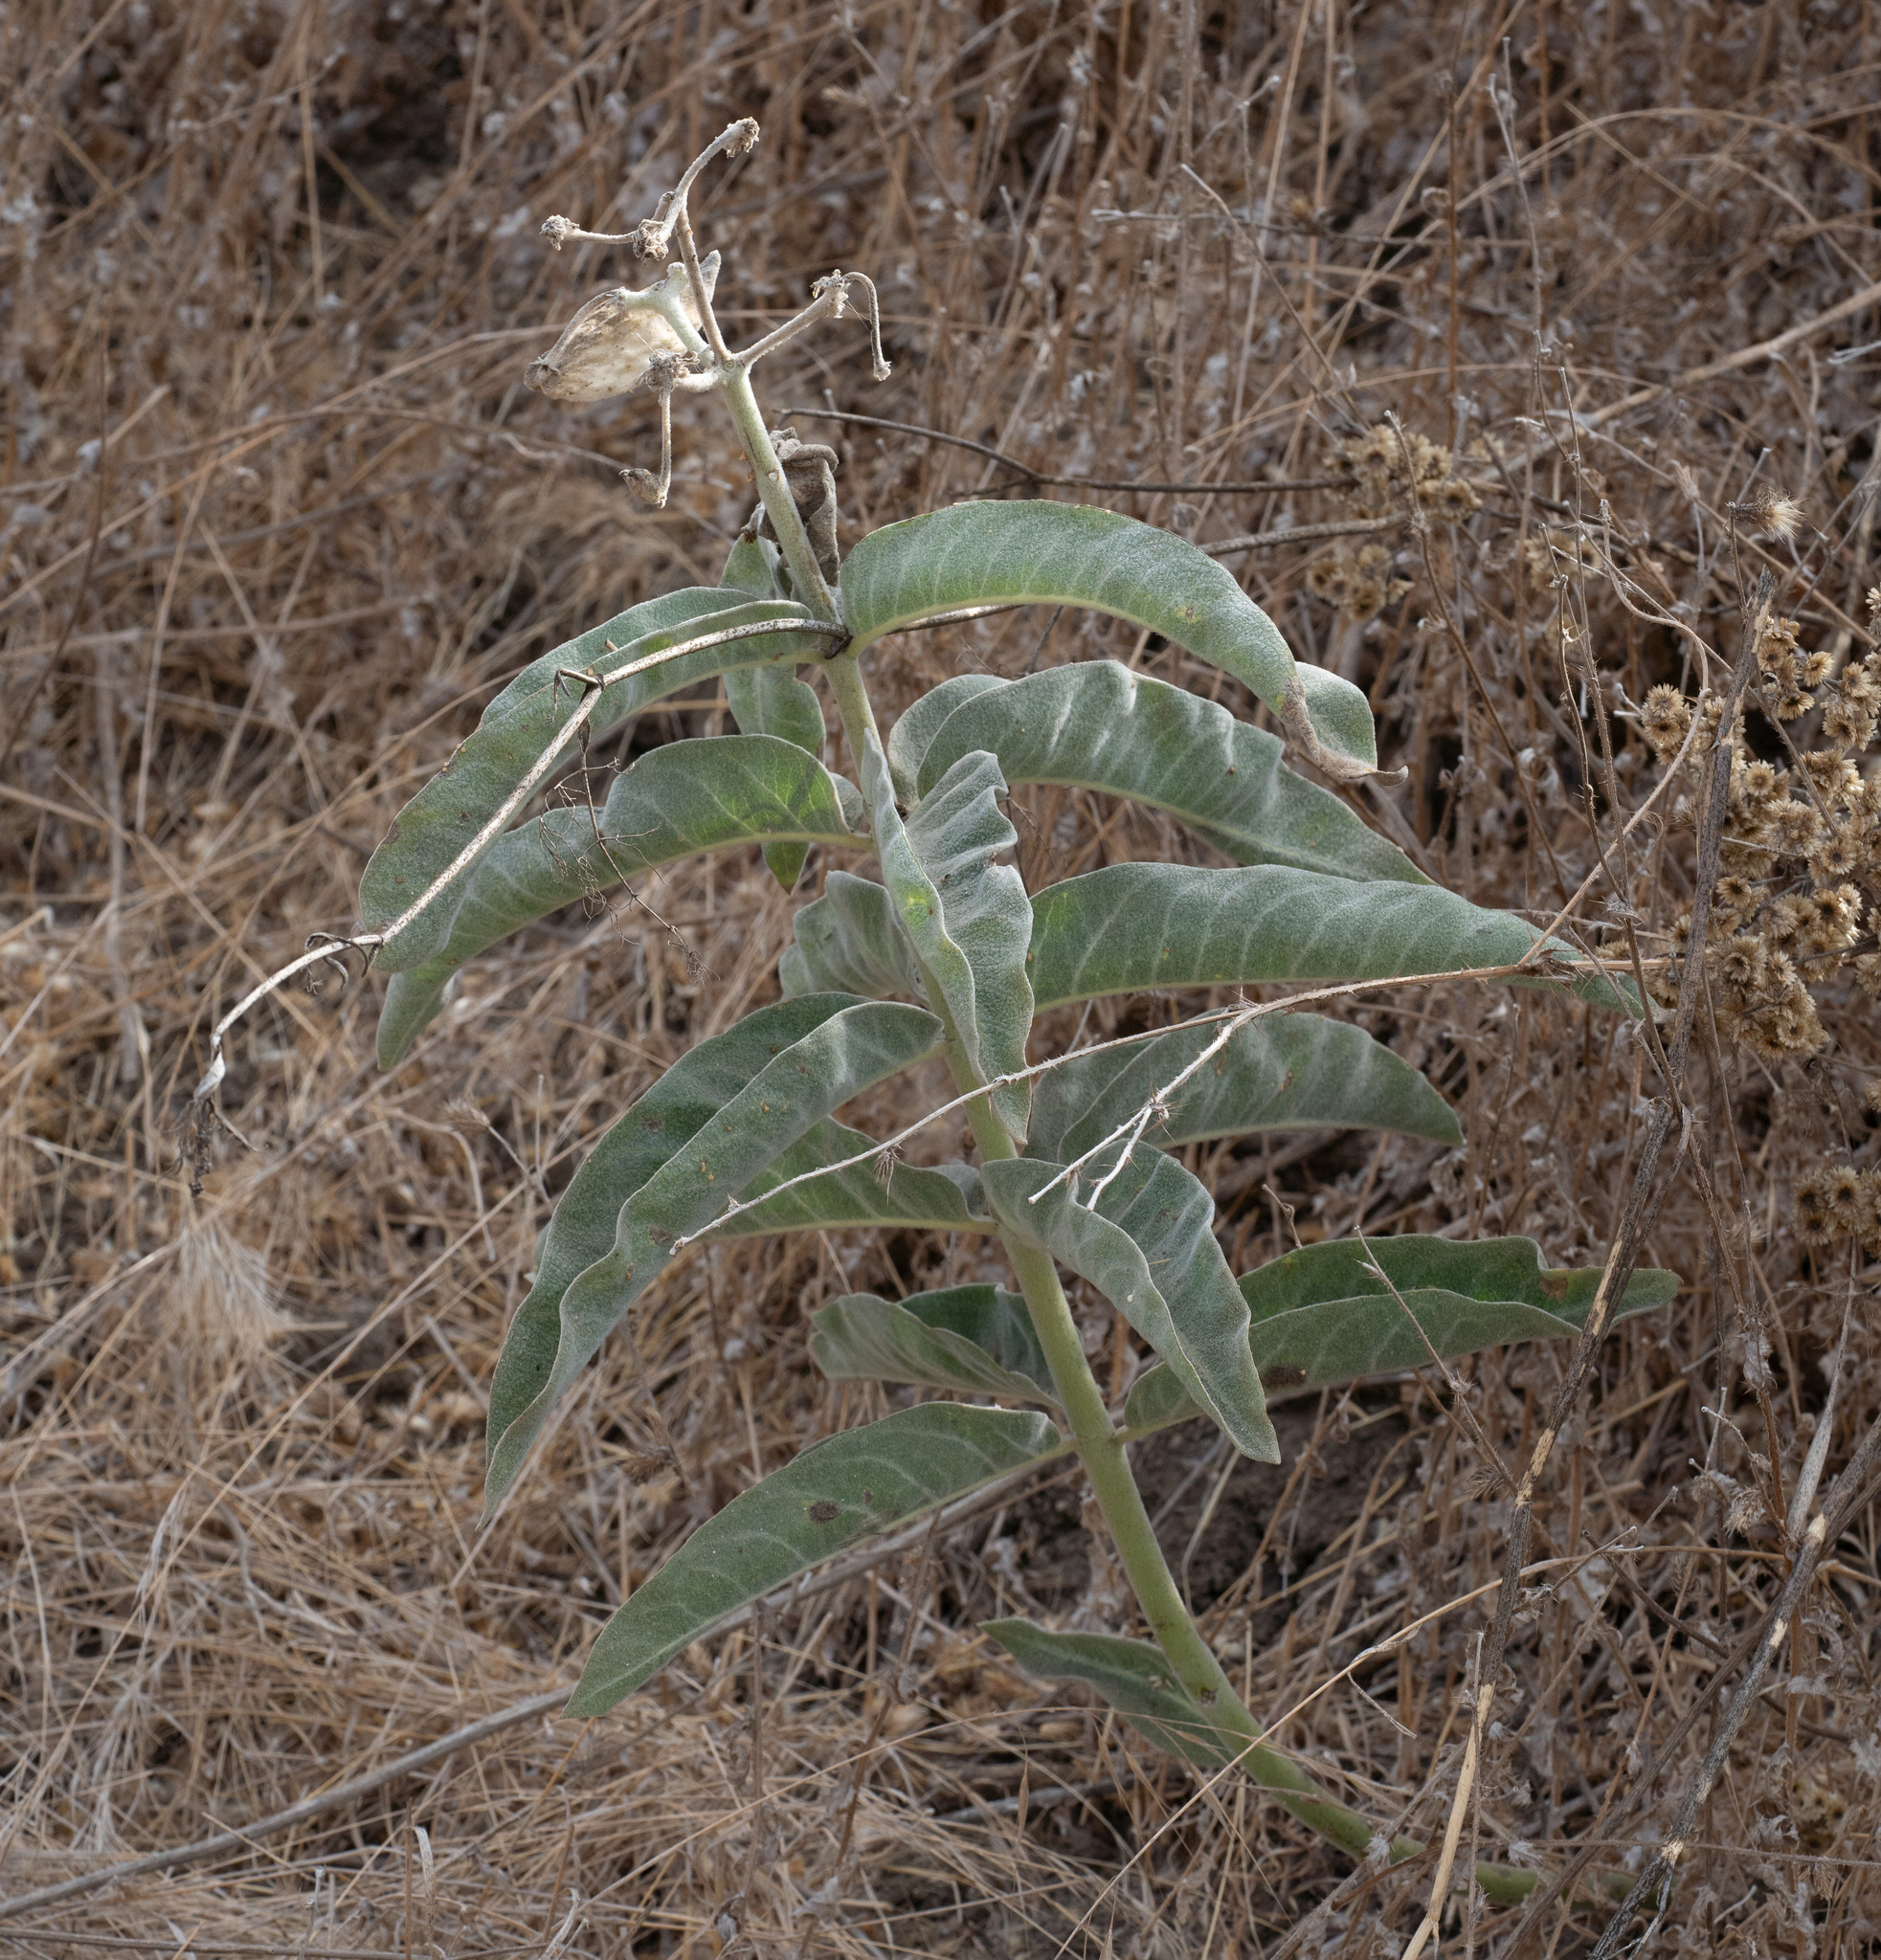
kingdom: Plantae
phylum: Tracheophyta
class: Magnoliopsida
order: Gentianales
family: Apocynaceae
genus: Asclepias
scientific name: Asclepias eriocarpa
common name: Indian milkweed
